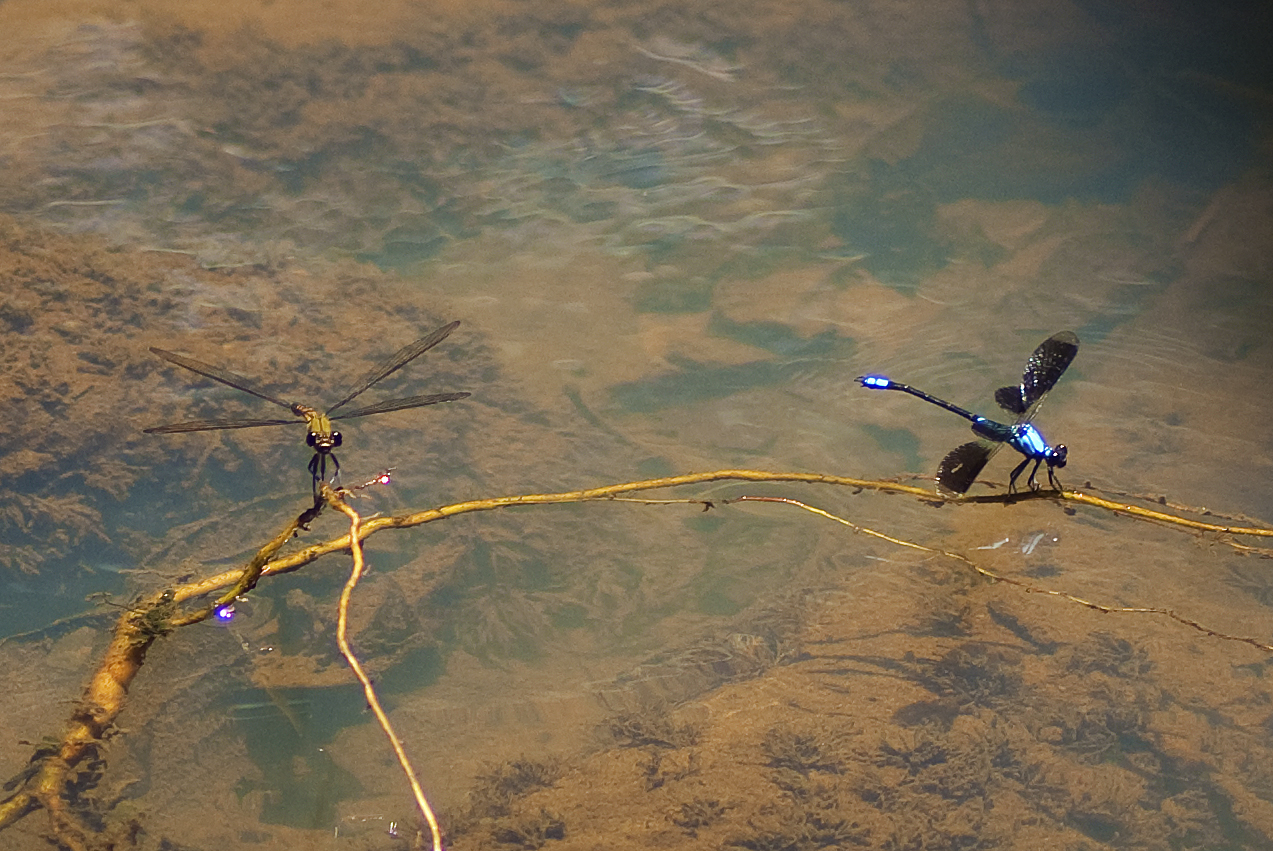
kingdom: Animalia
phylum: Arthropoda
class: Insecta
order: Odonata
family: Lestoideidae
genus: Diphlebia
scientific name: Diphlebia euphoeoides
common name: Tropical rockmaster
